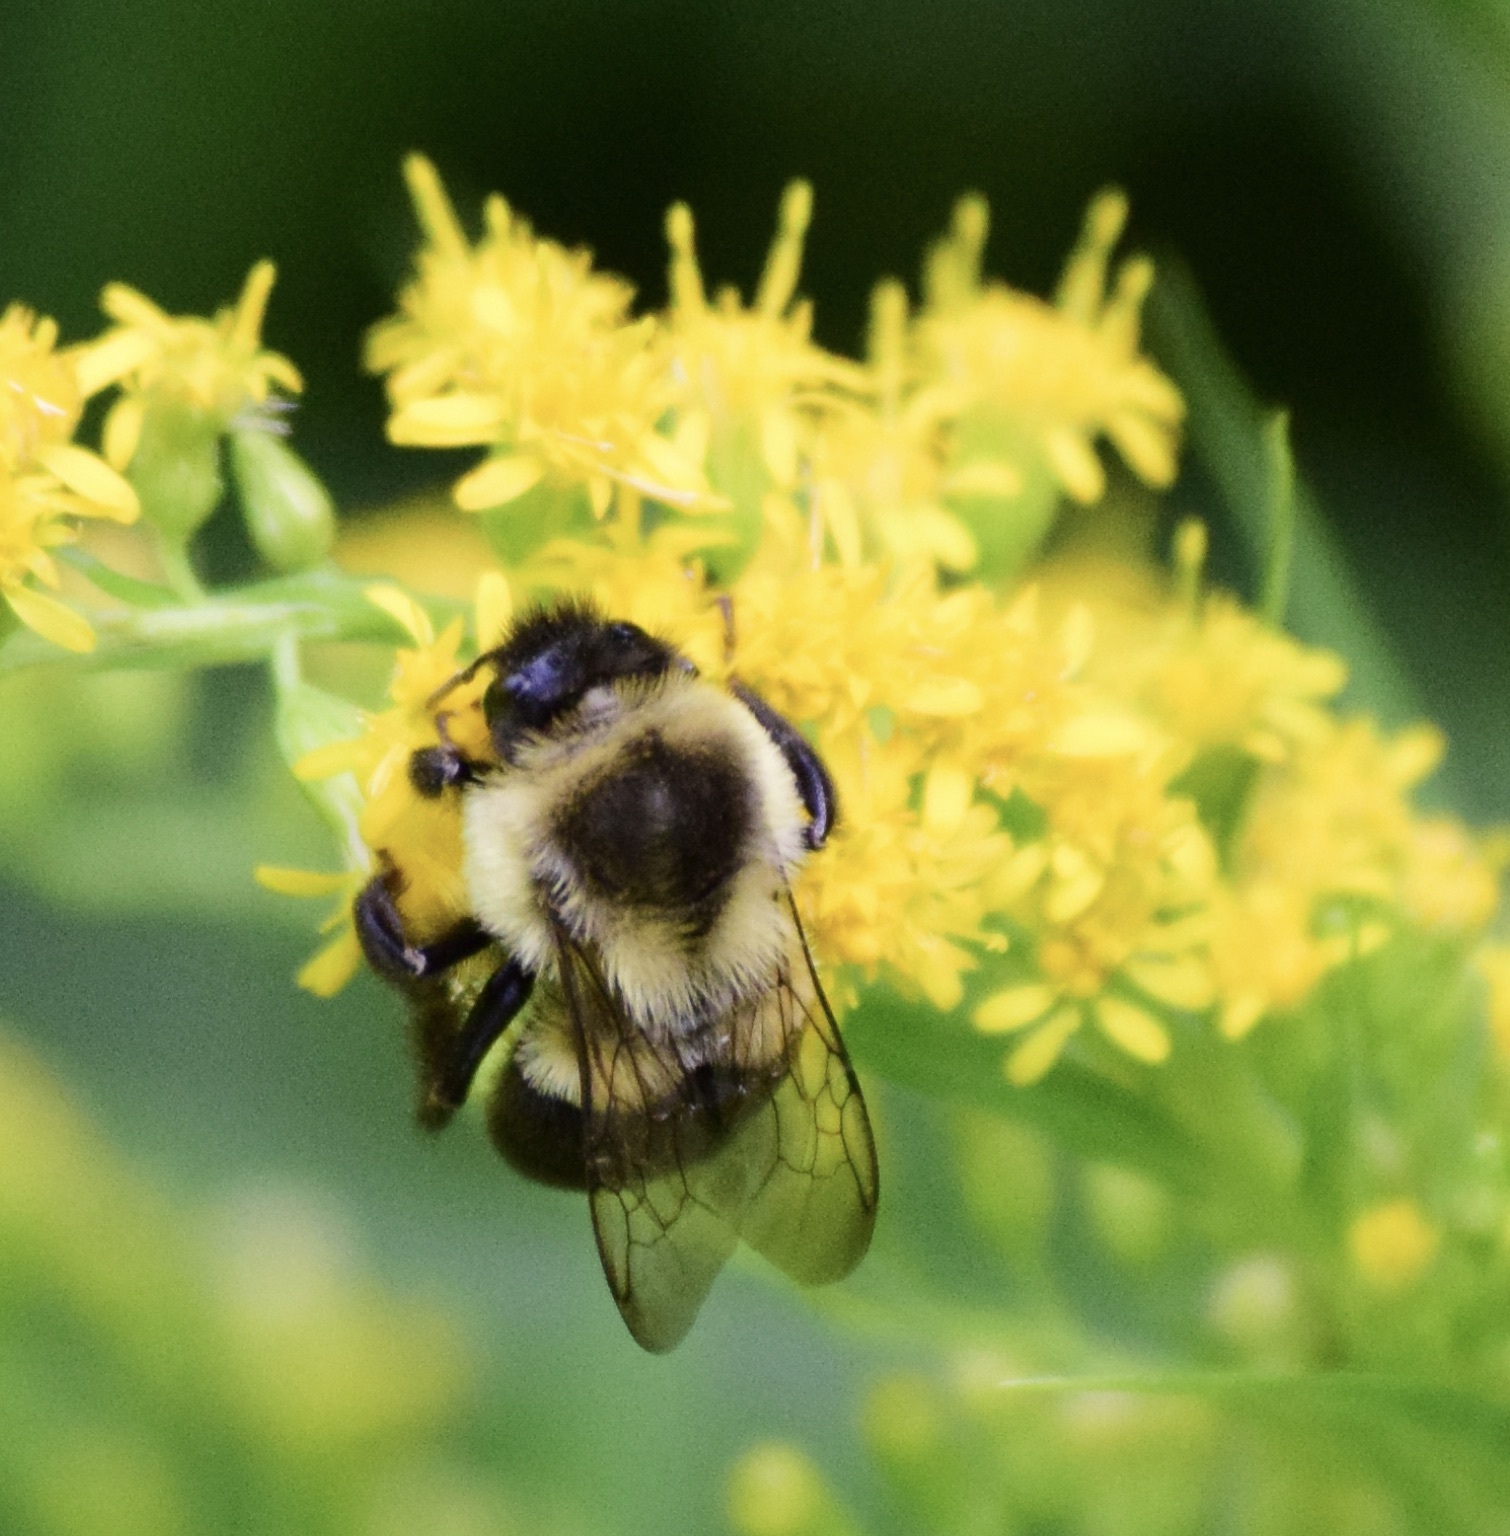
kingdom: Animalia
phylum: Arthropoda
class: Insecta
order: Hymenoptera
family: Apidae
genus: Bombus
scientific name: Bombus impatiens
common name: Common eastern bumble bee
